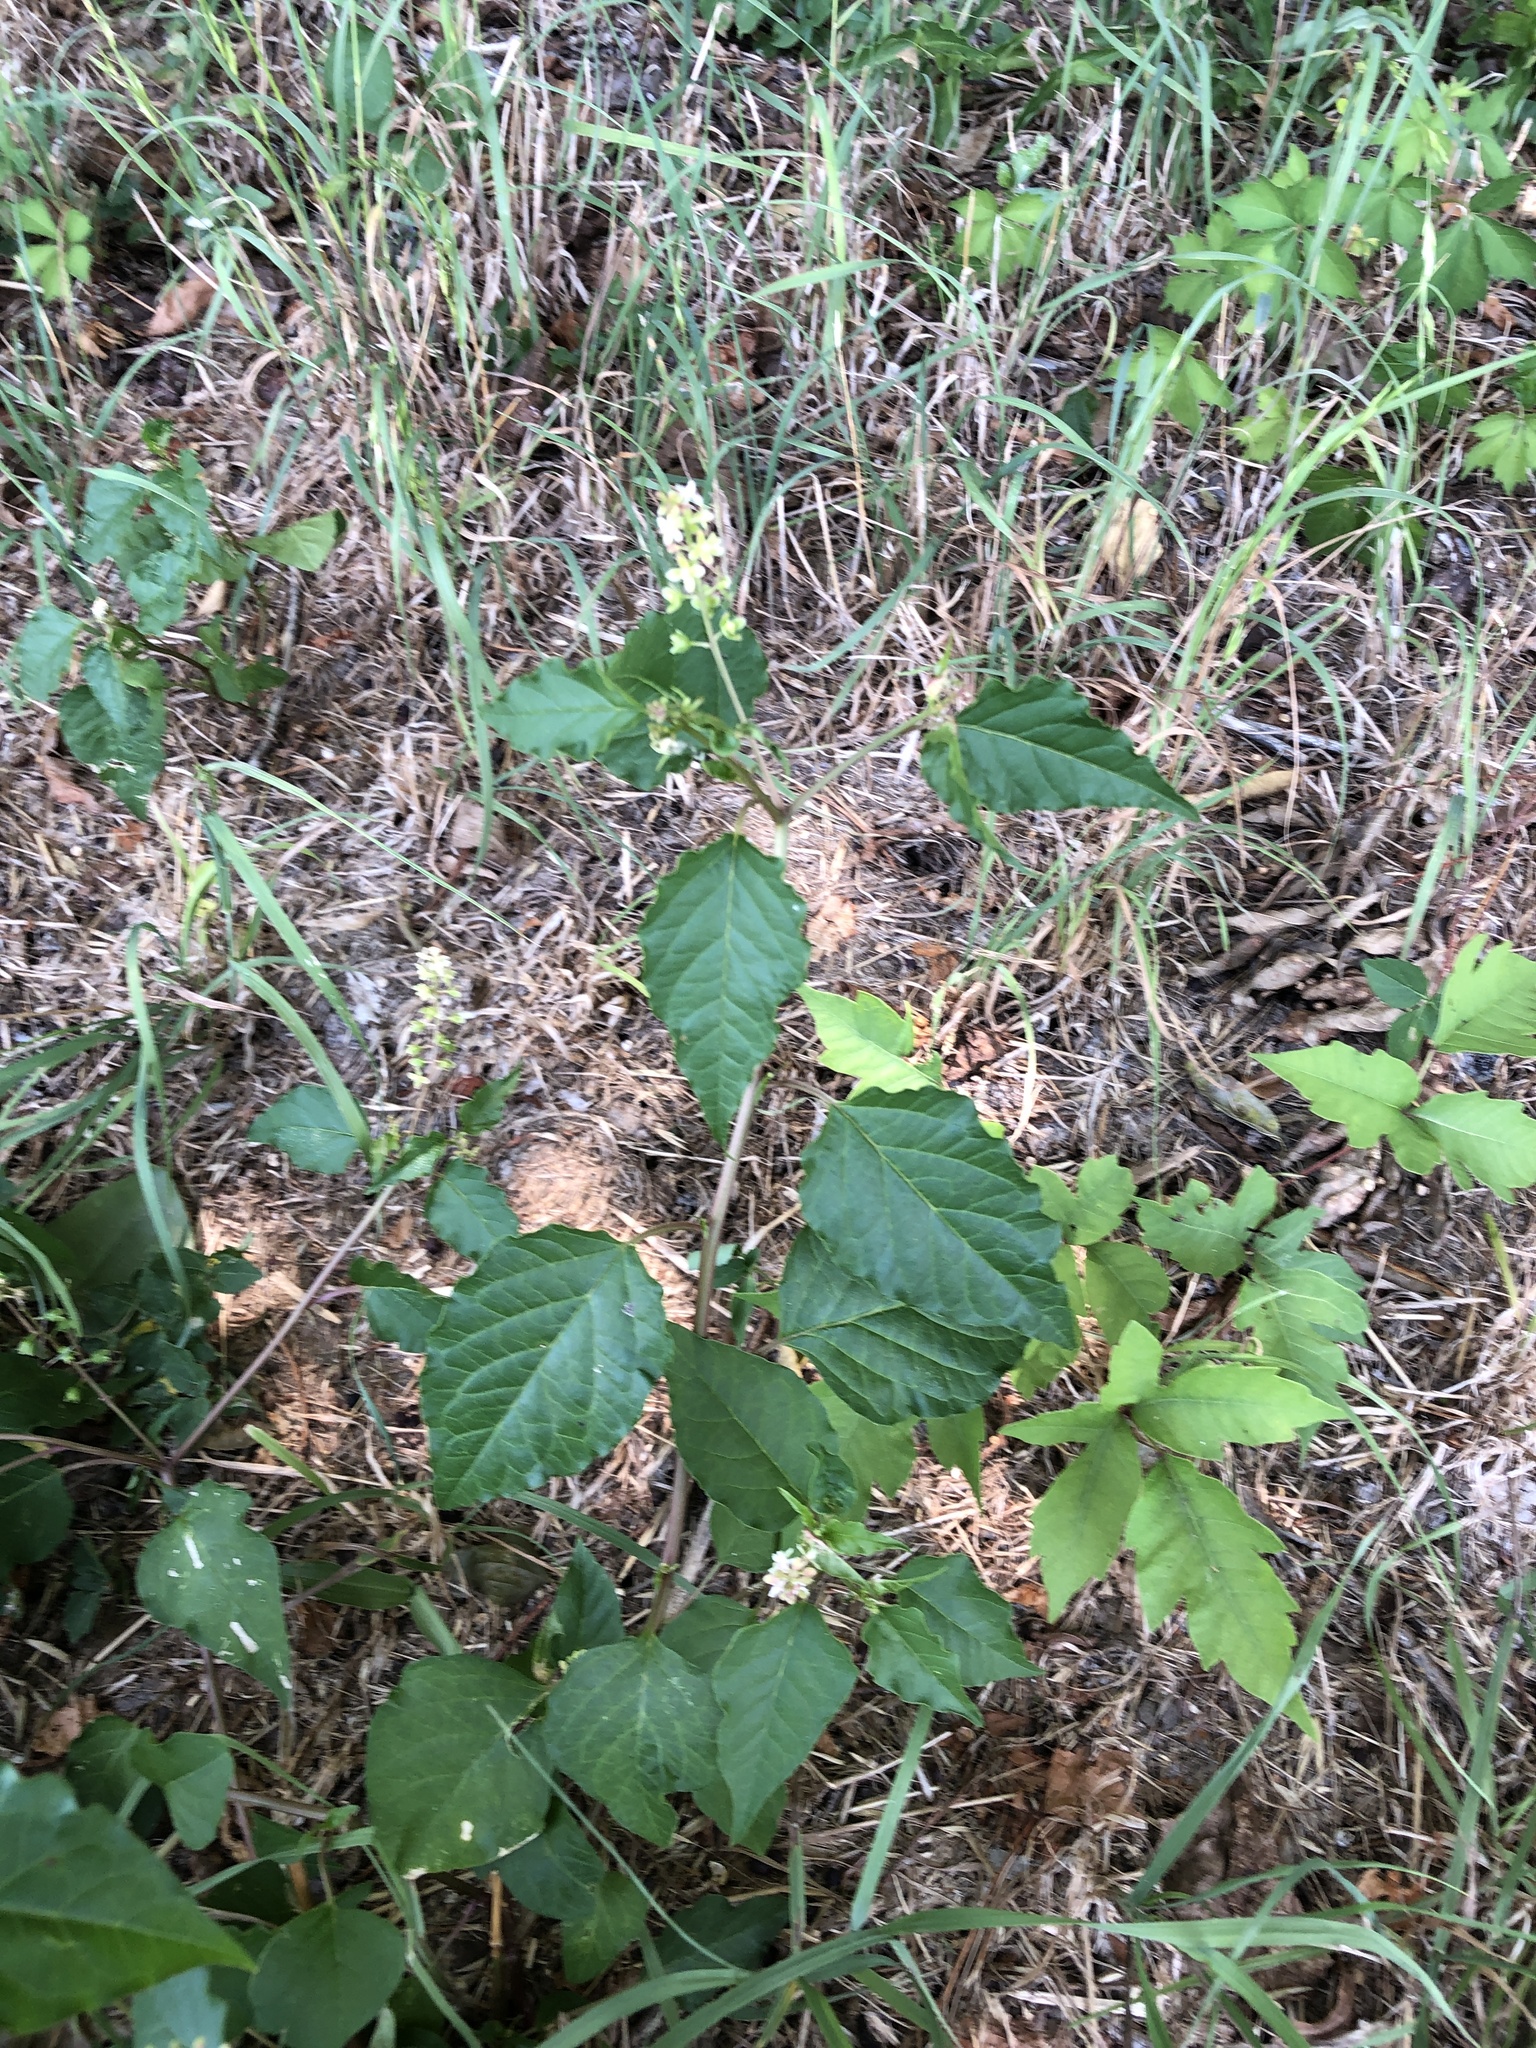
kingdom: Plantae
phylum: Tracheophyta
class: Magnoliopsida
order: Caryophyllales
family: Phytolaccaceae
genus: Rivina
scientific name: Rivina humilis
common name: Rougeplant
